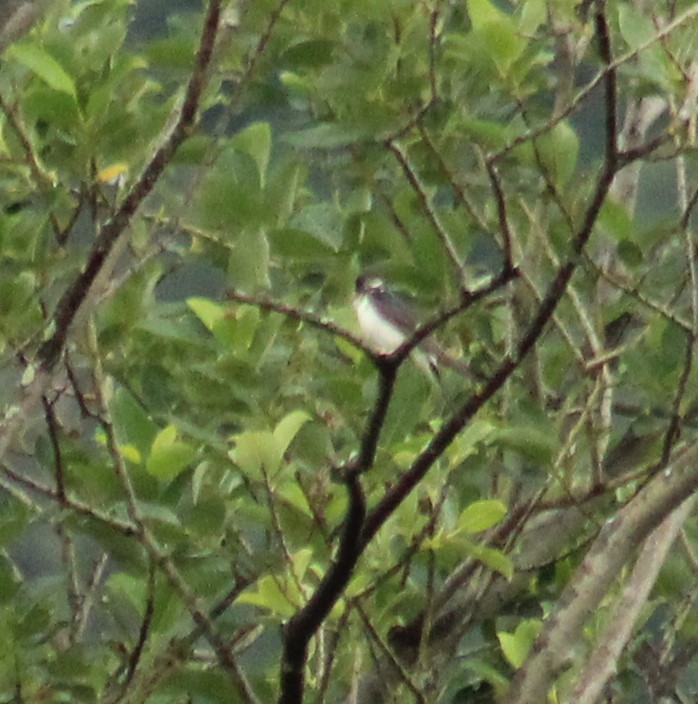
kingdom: Animalia
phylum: Chordata
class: Aves
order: Passeriformes
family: Hirundinidae
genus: Delichon
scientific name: Delichon urbicum
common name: Common house martin
